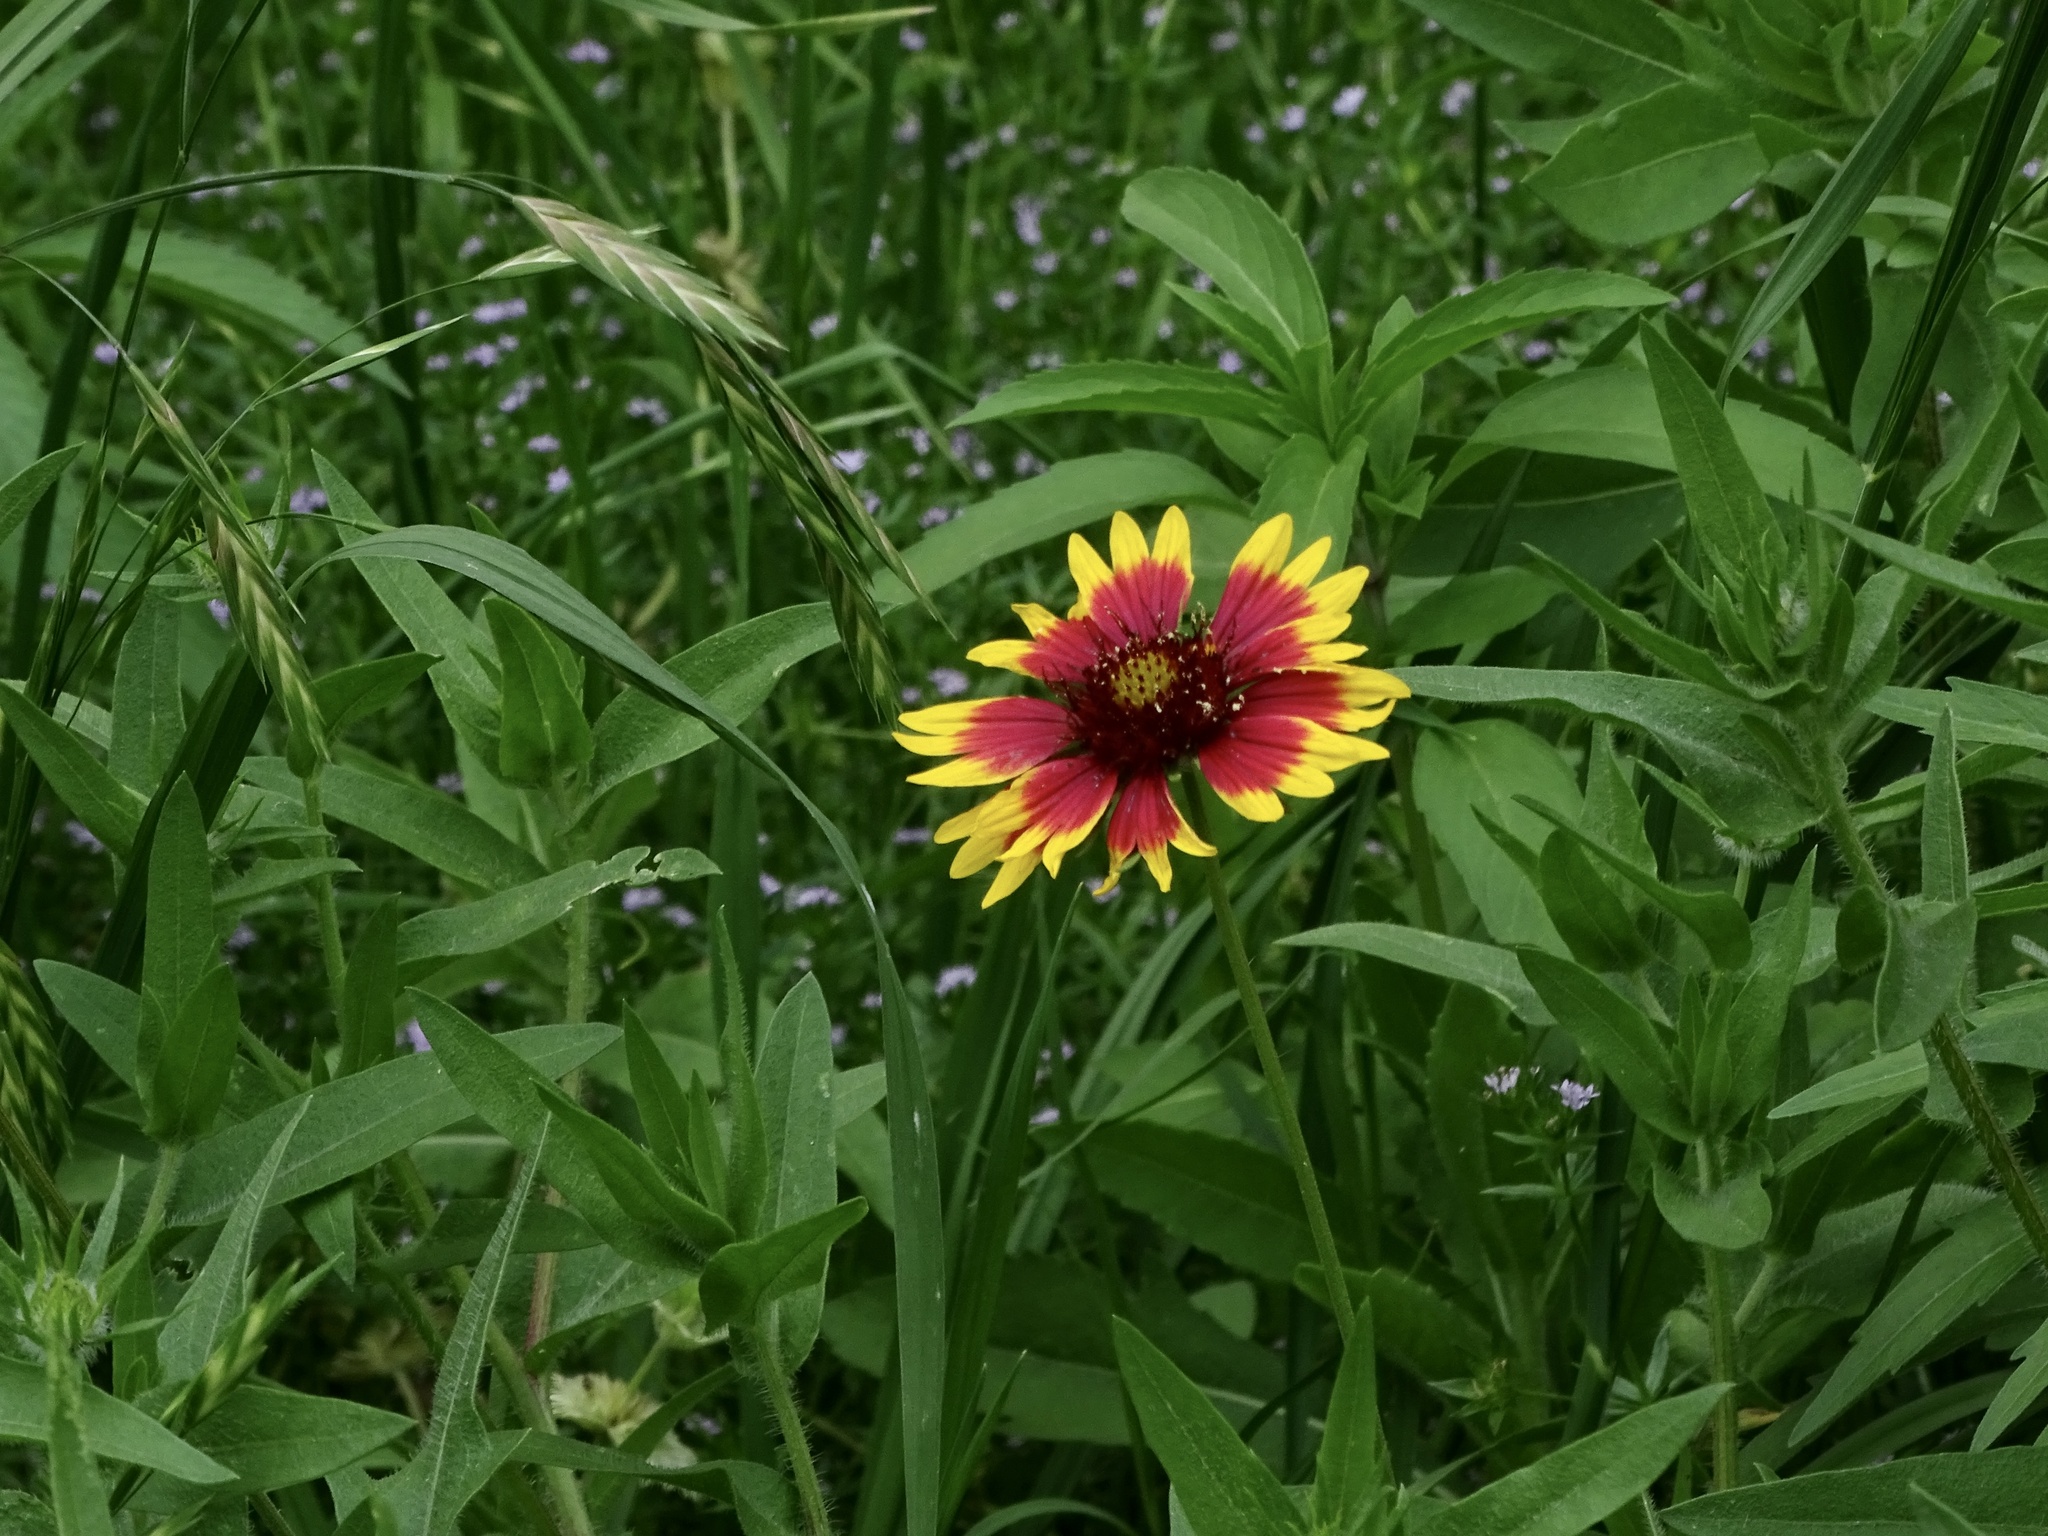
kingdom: Plantae
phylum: Tracheophyta
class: Magnoliopsida
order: Asterales
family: Asteraceae
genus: Gaillardia
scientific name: Gaillardia pulchella
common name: Firewheel
